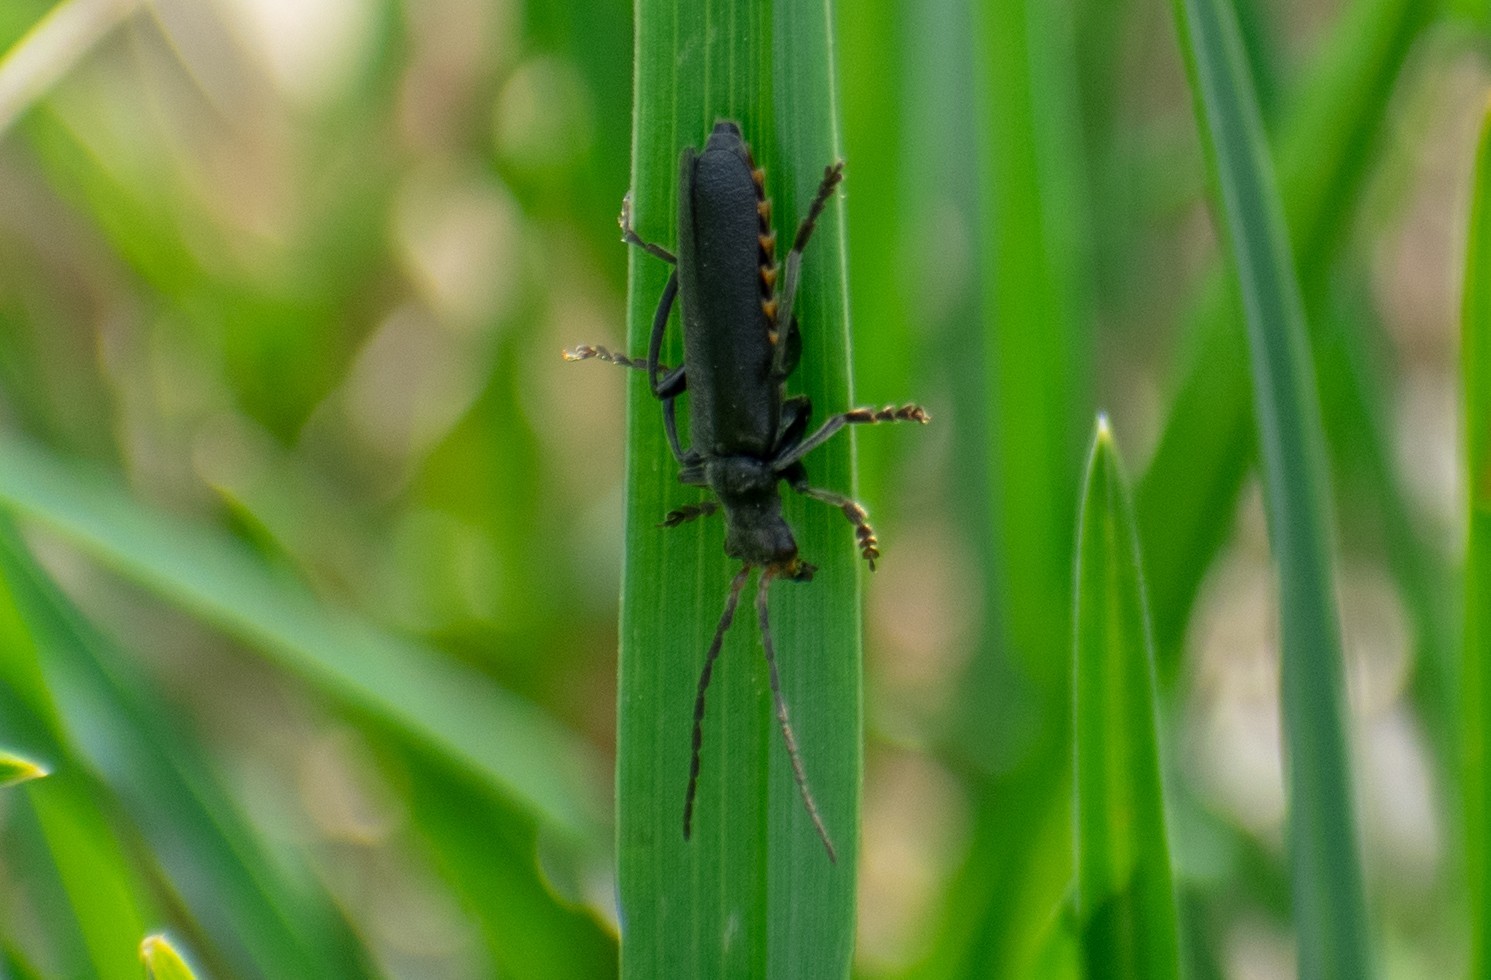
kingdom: Animalia
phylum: Arthropoda
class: Insecta
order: Coleoptera
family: Cantharidae
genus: Cantharis
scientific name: Cantharis tristis
